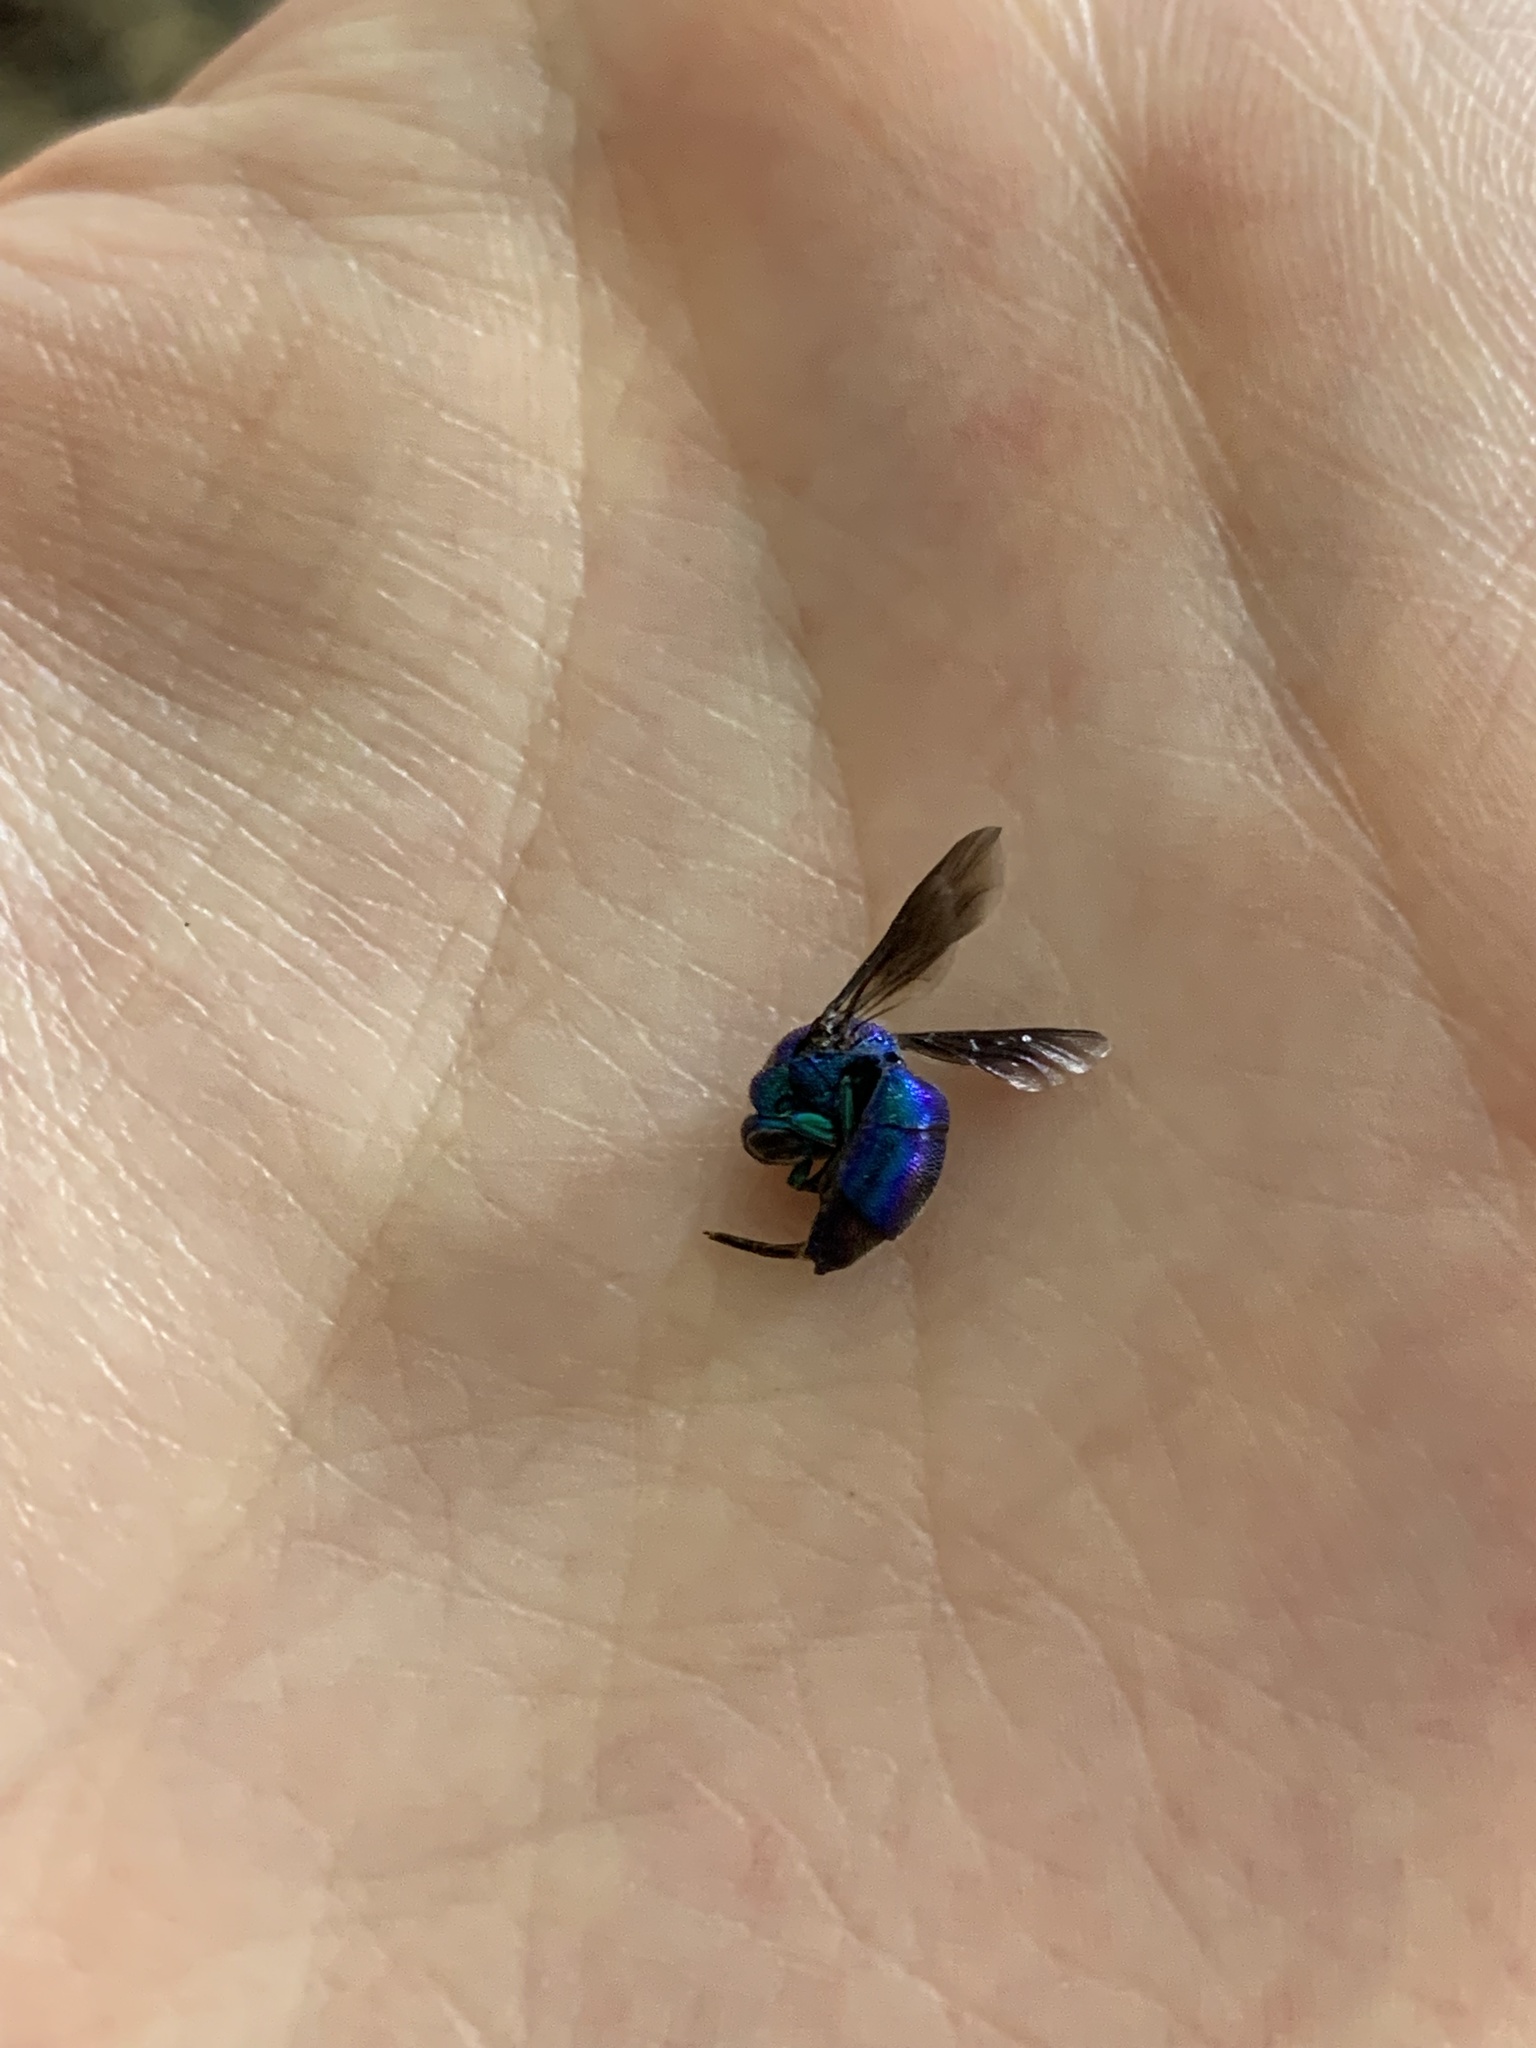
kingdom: Animalia
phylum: Arthropoda
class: Insecta
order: Hymenoptera
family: Chrysididae
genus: Chrysis
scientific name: Chrysis angolensis
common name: Cuckoo wasp
